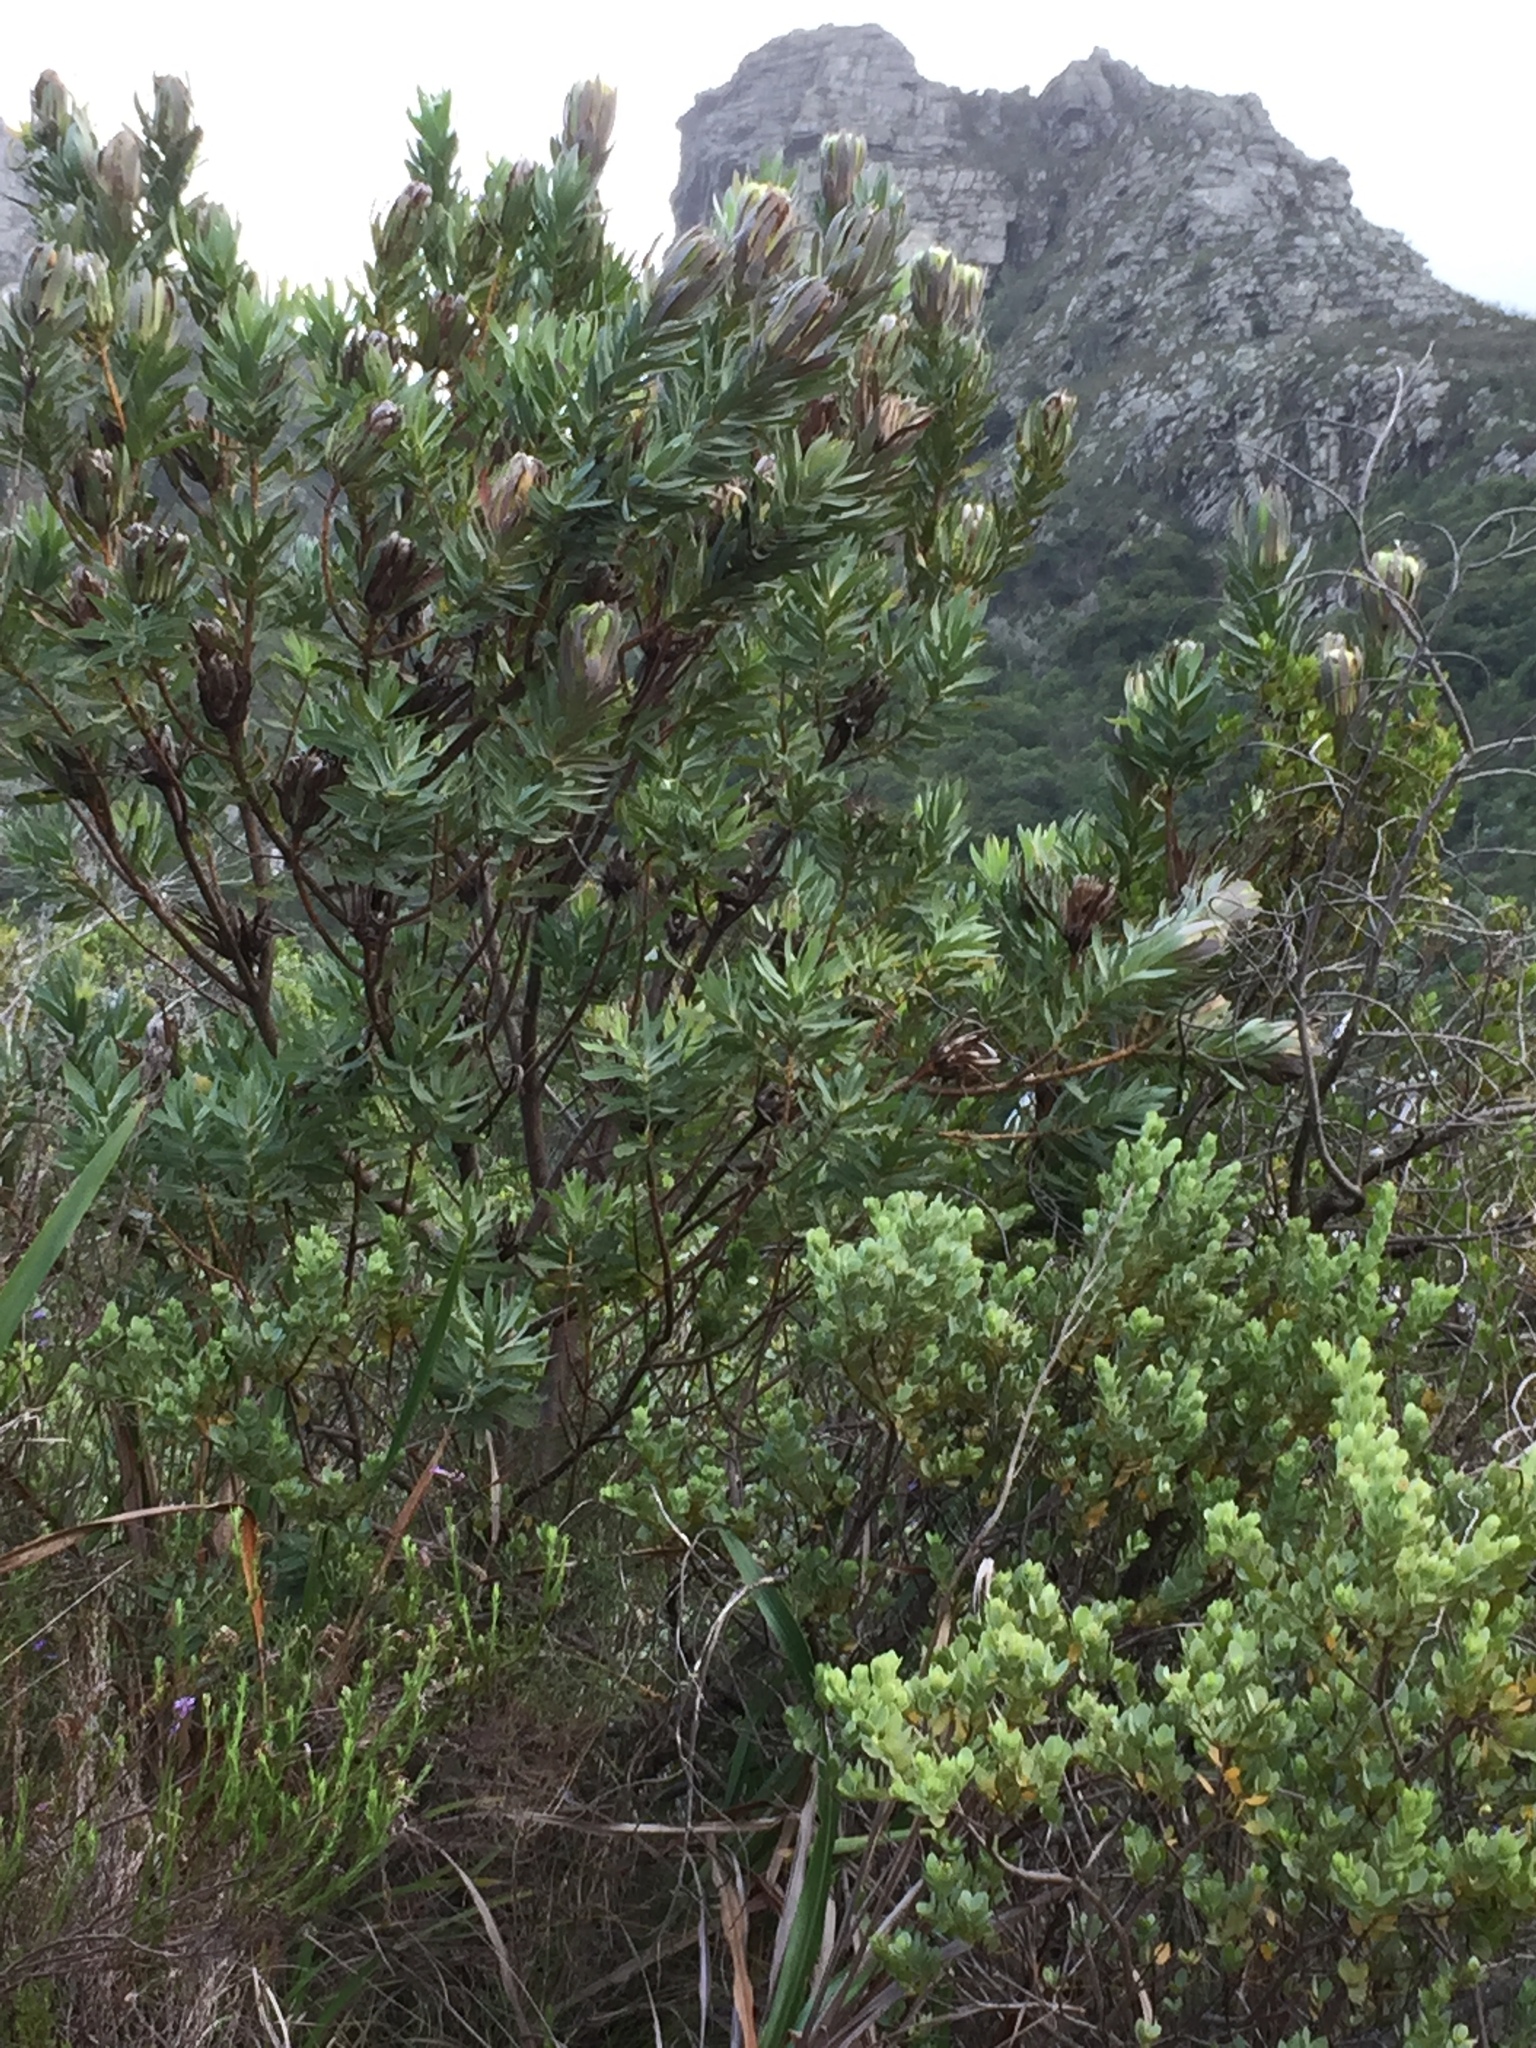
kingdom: Plantae
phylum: Tracheophyta
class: Magnoliopsida
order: Proteales
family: Proteaceae
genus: Protea
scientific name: Protea coronata
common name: Green sugarbush
